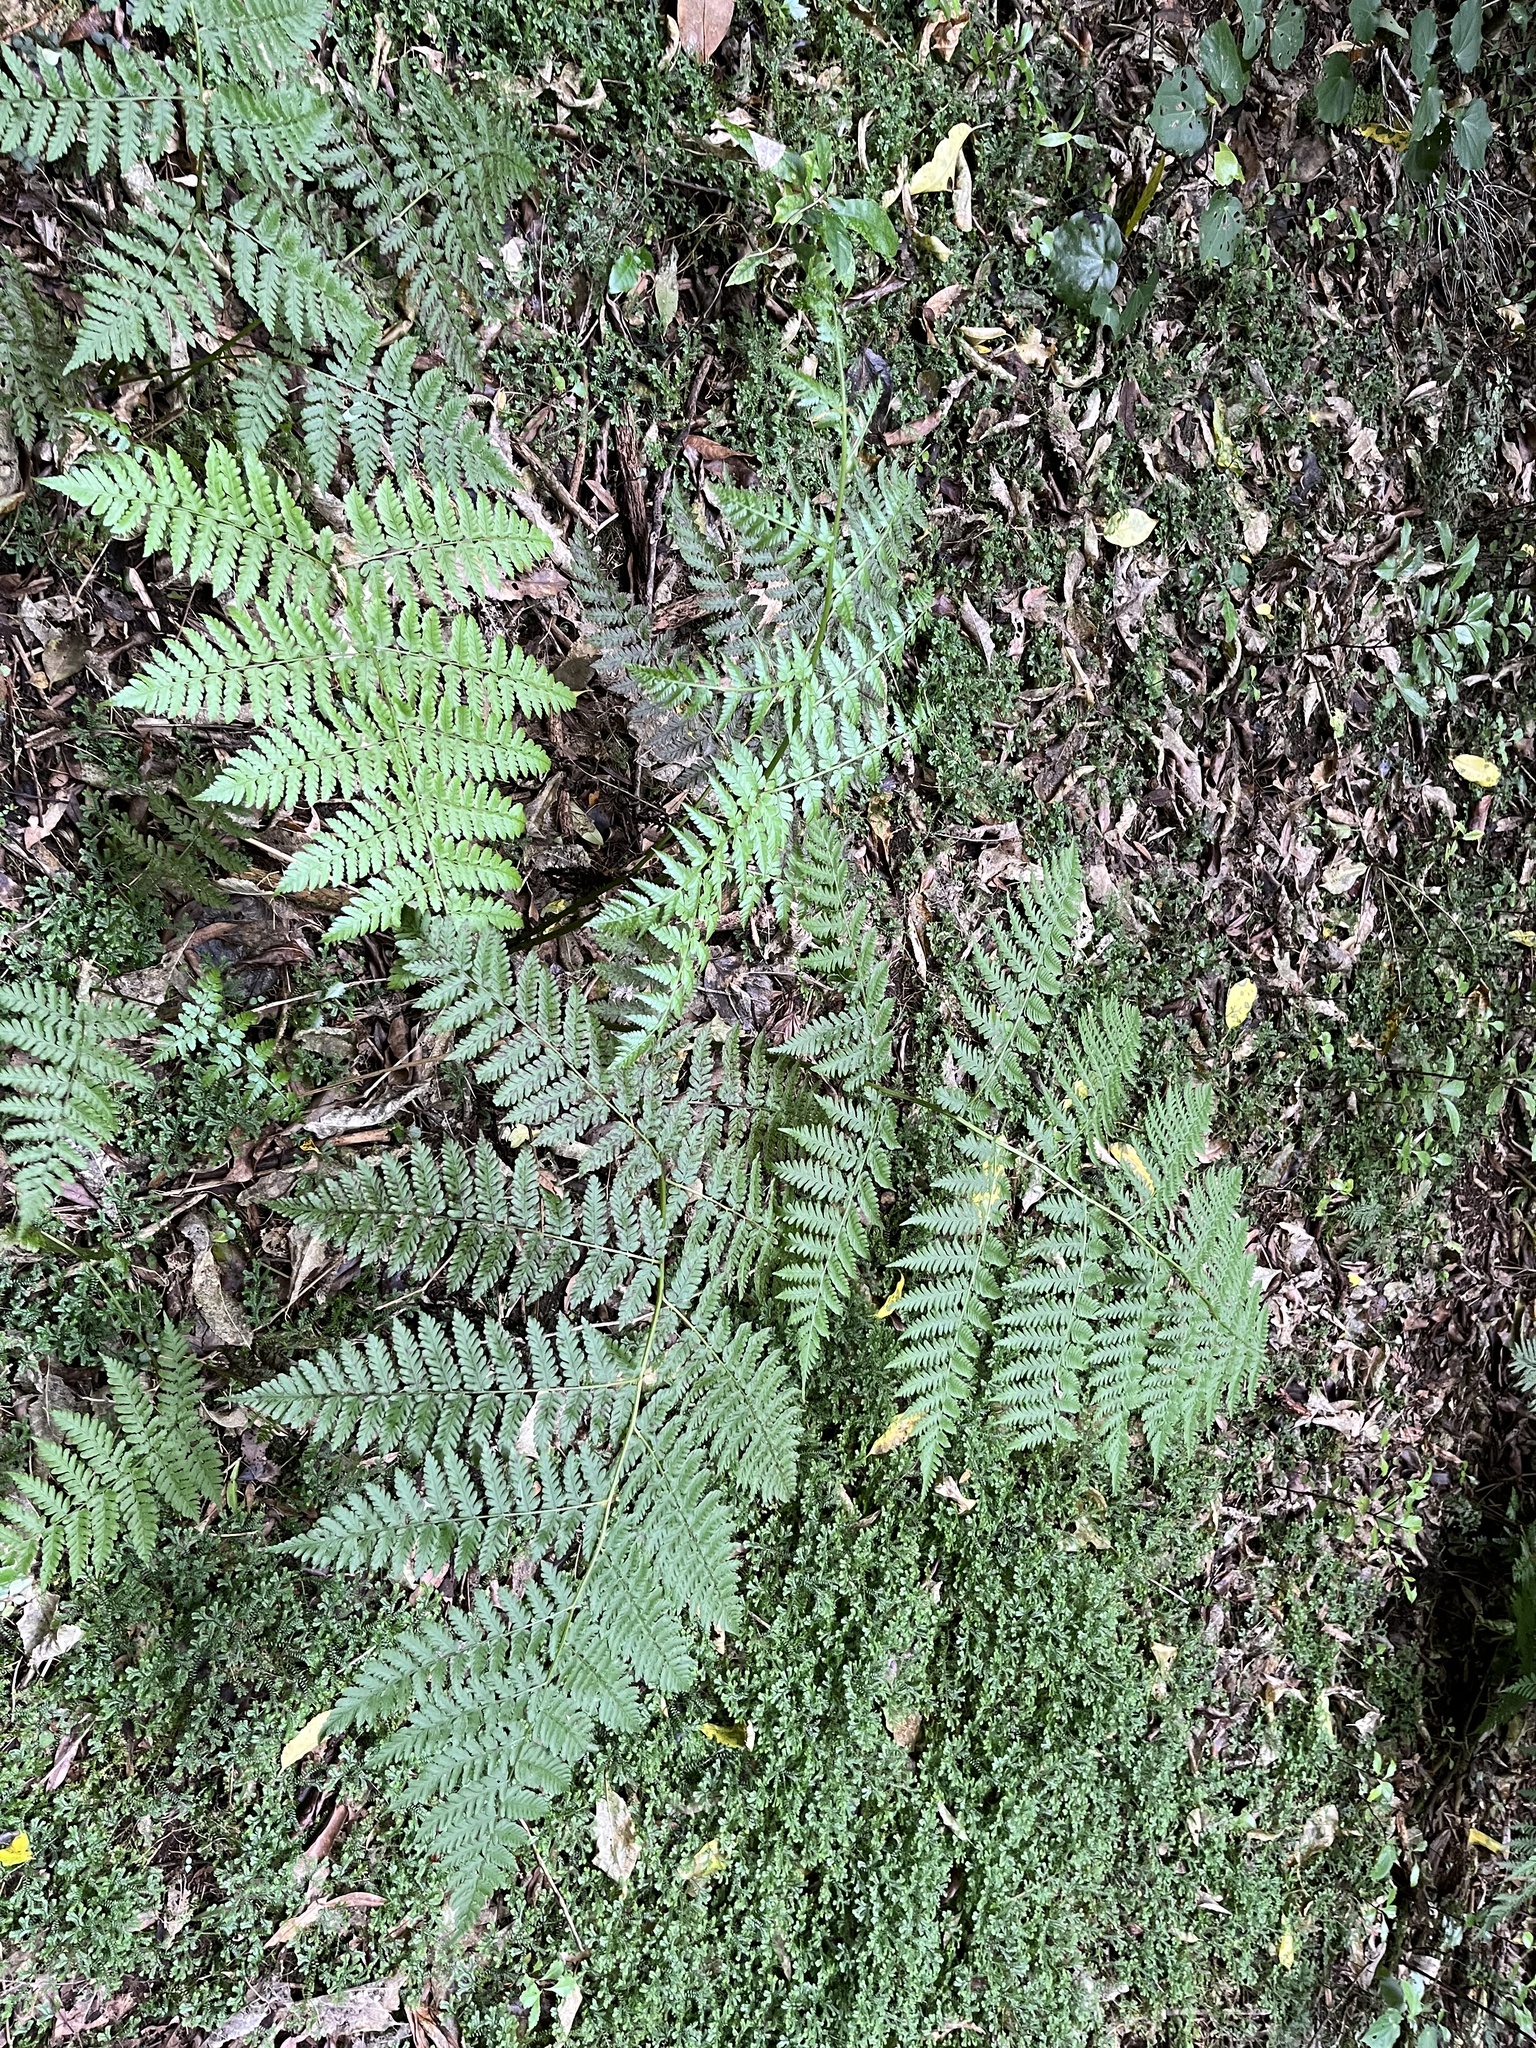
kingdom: Plantae
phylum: Tracheophyta
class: Polypodiopsida
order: Polypodiales
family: Athyriaceae
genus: Diplazium
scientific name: Diplazium australe
